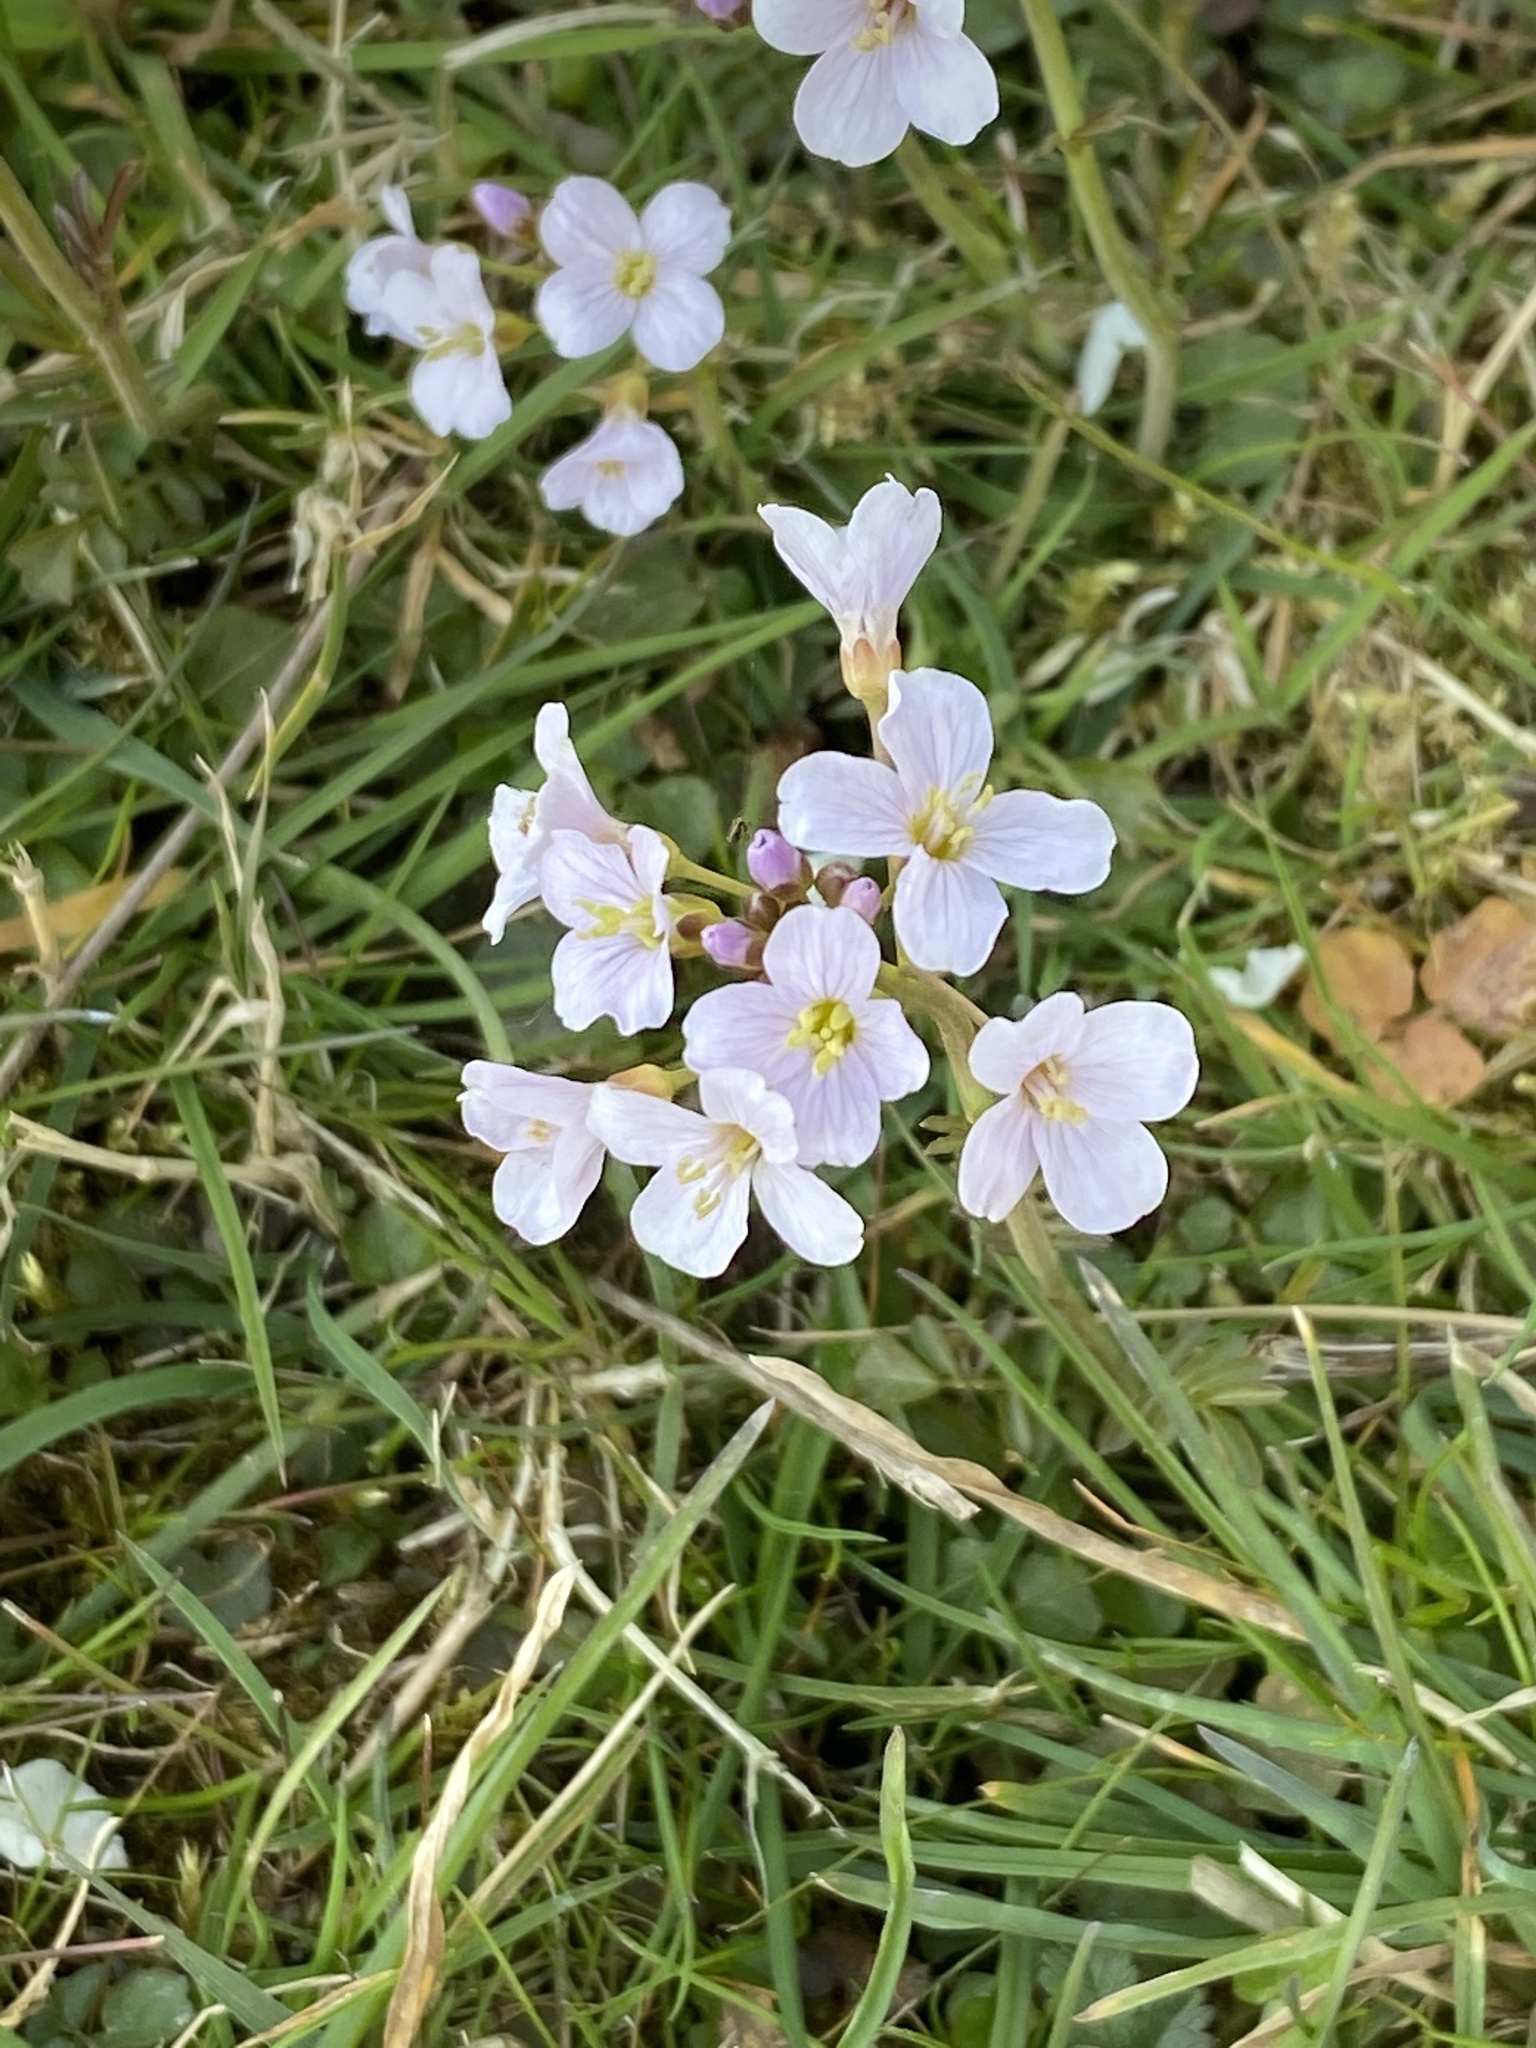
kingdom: Plantae
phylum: Tracheophyta
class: Magnoliopsida
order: Brassicales
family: Brassicaceae
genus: Cardamine
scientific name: Cardamine pratensis
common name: Cuckoo flower
